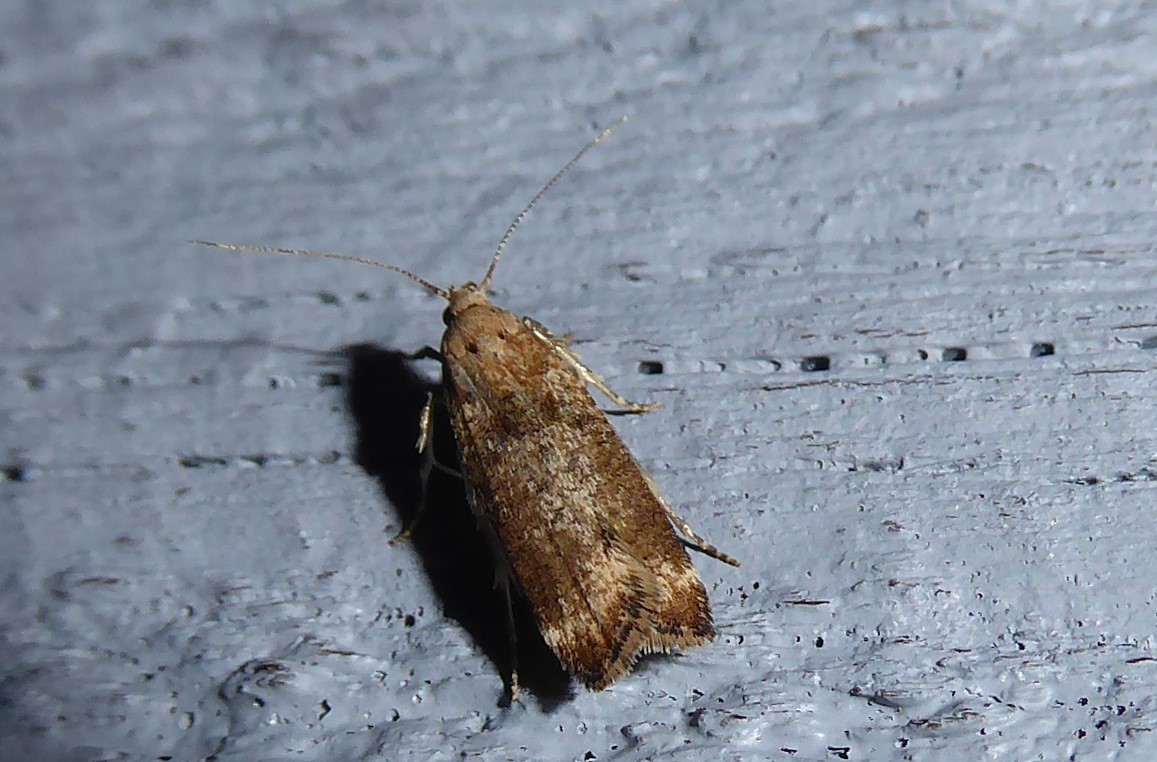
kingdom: Animalia
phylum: Arthropoda
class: Insecta
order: Lepidoptera
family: Gelechiidae
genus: Anisoplaca
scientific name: Anisoplaca acrodactyla
